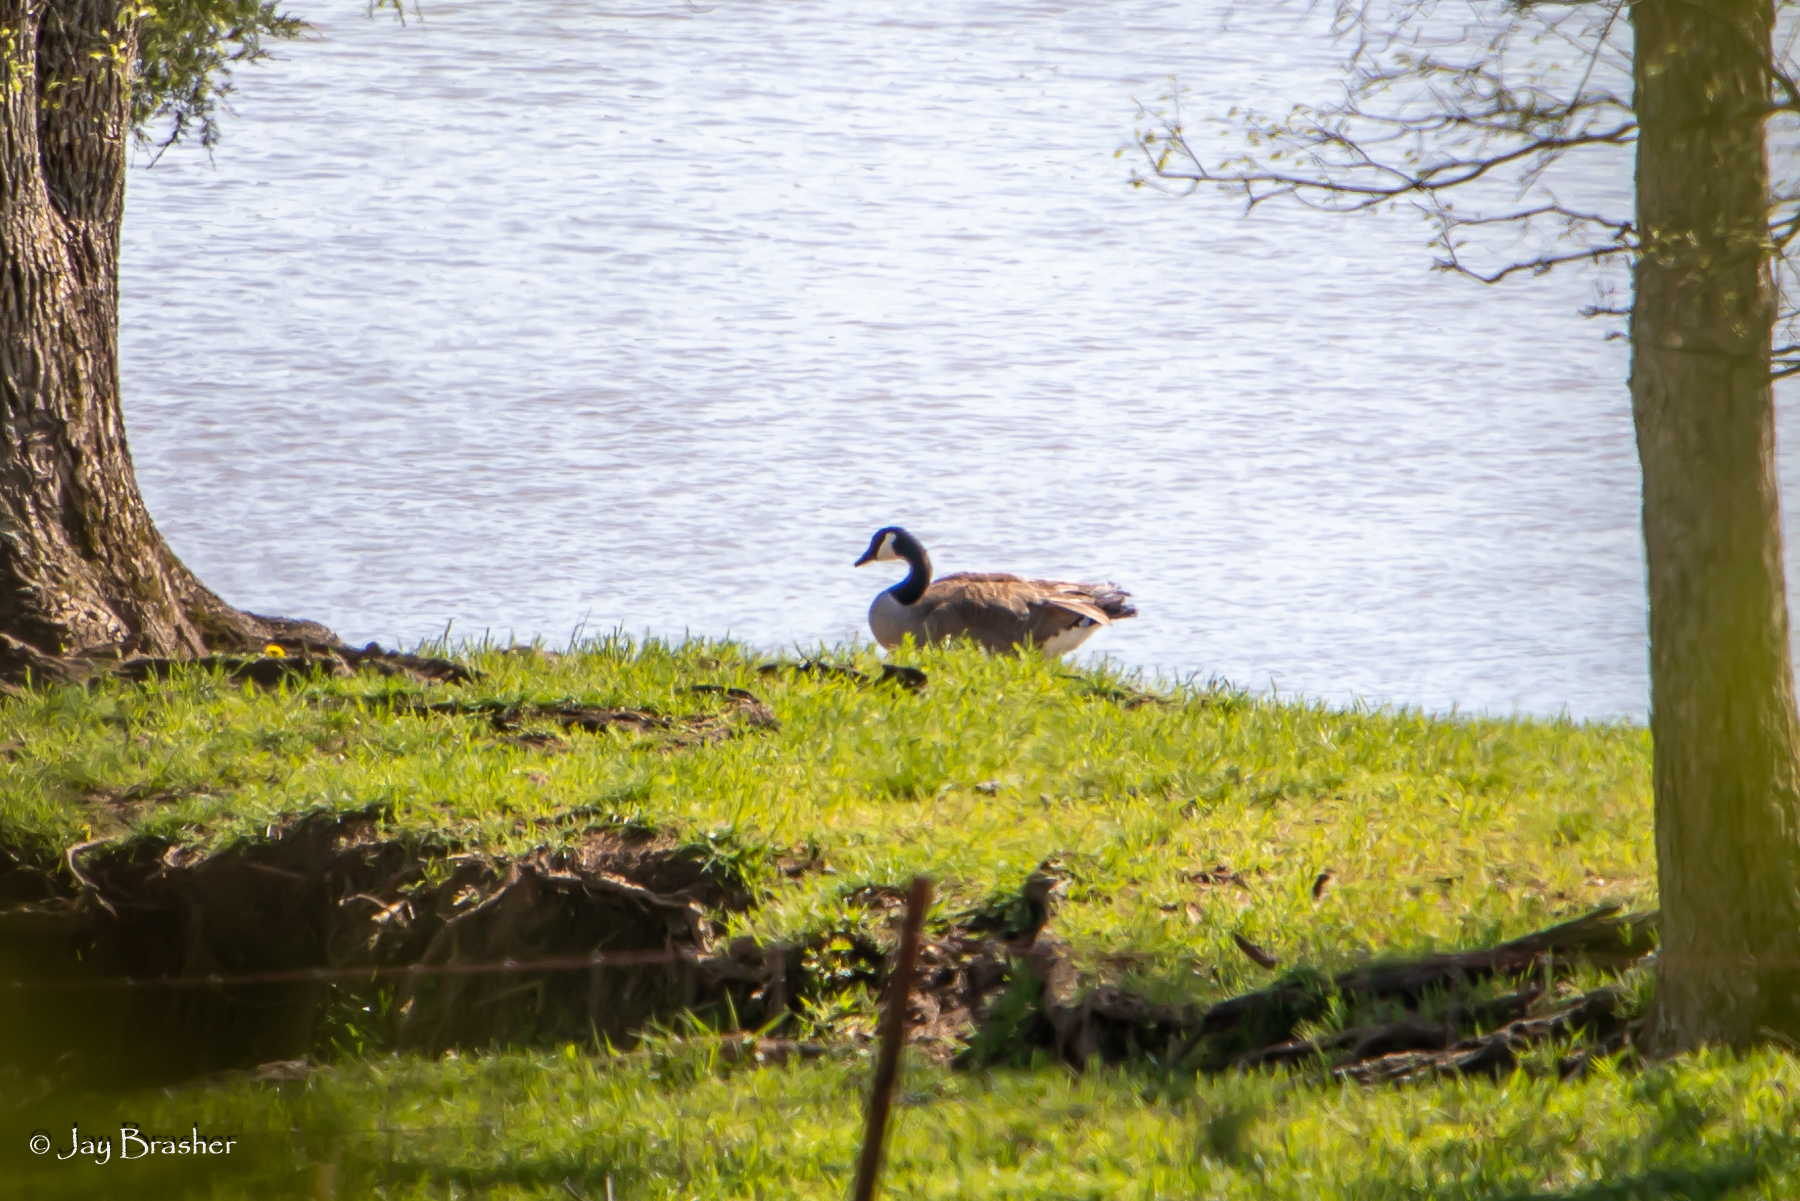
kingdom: Animalia
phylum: Chordata
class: Aves
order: Anseriformes
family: Anatidae
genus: Branta
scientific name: Branta canadensis
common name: Canada goose
